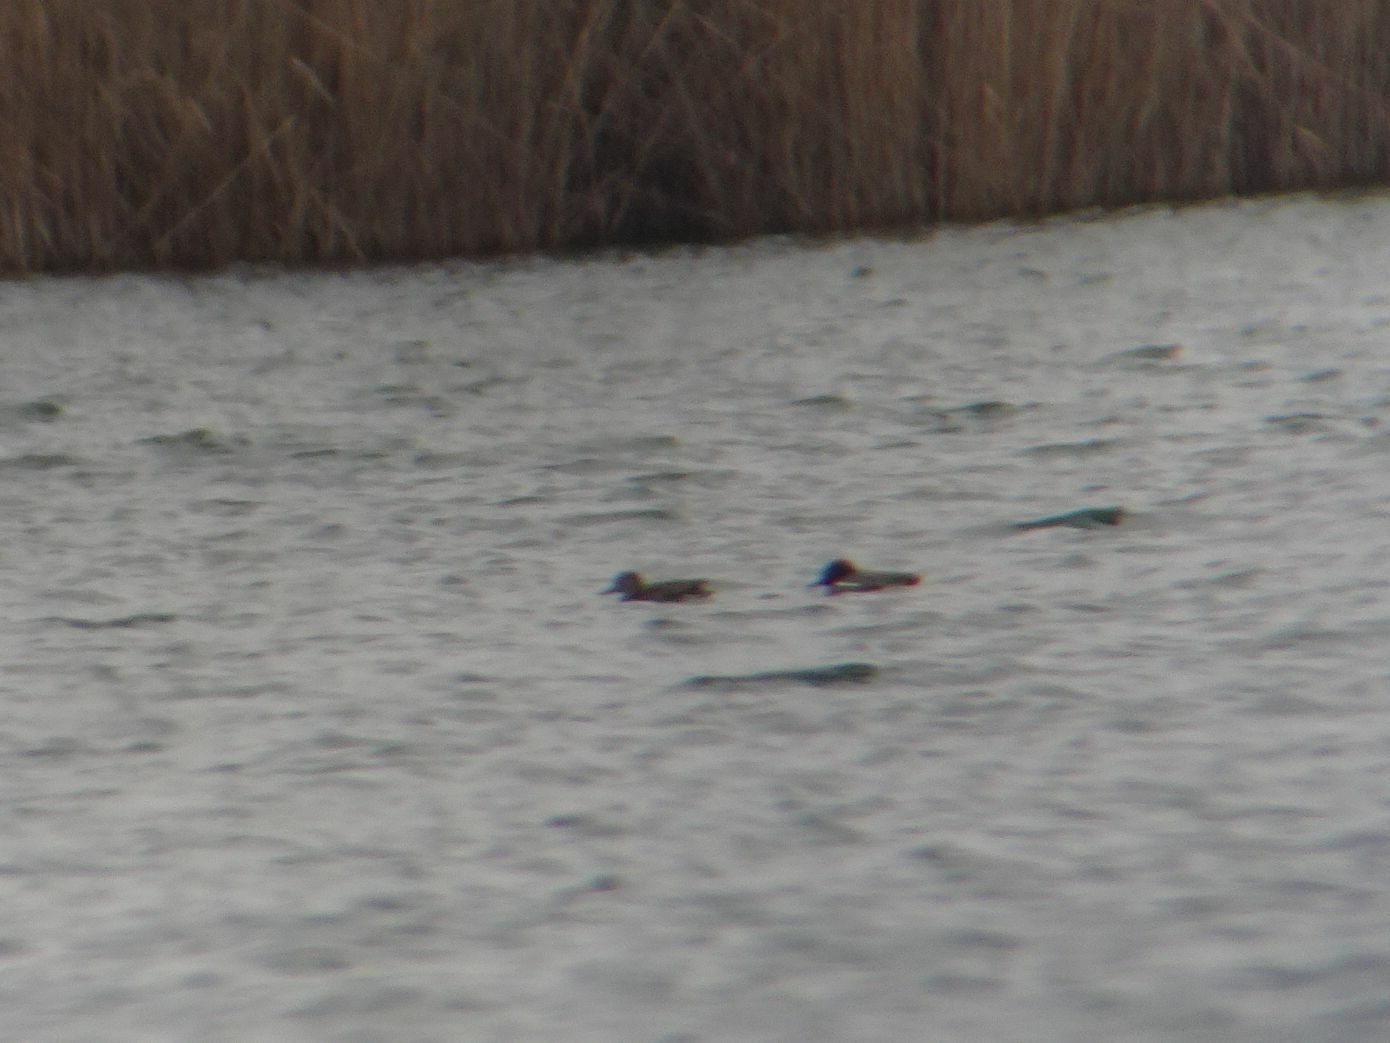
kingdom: Animalia
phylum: Chordata
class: Aves
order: Anseriformes
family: Anatidae
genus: Anas
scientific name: Anas crecca
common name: Eurasian teal
